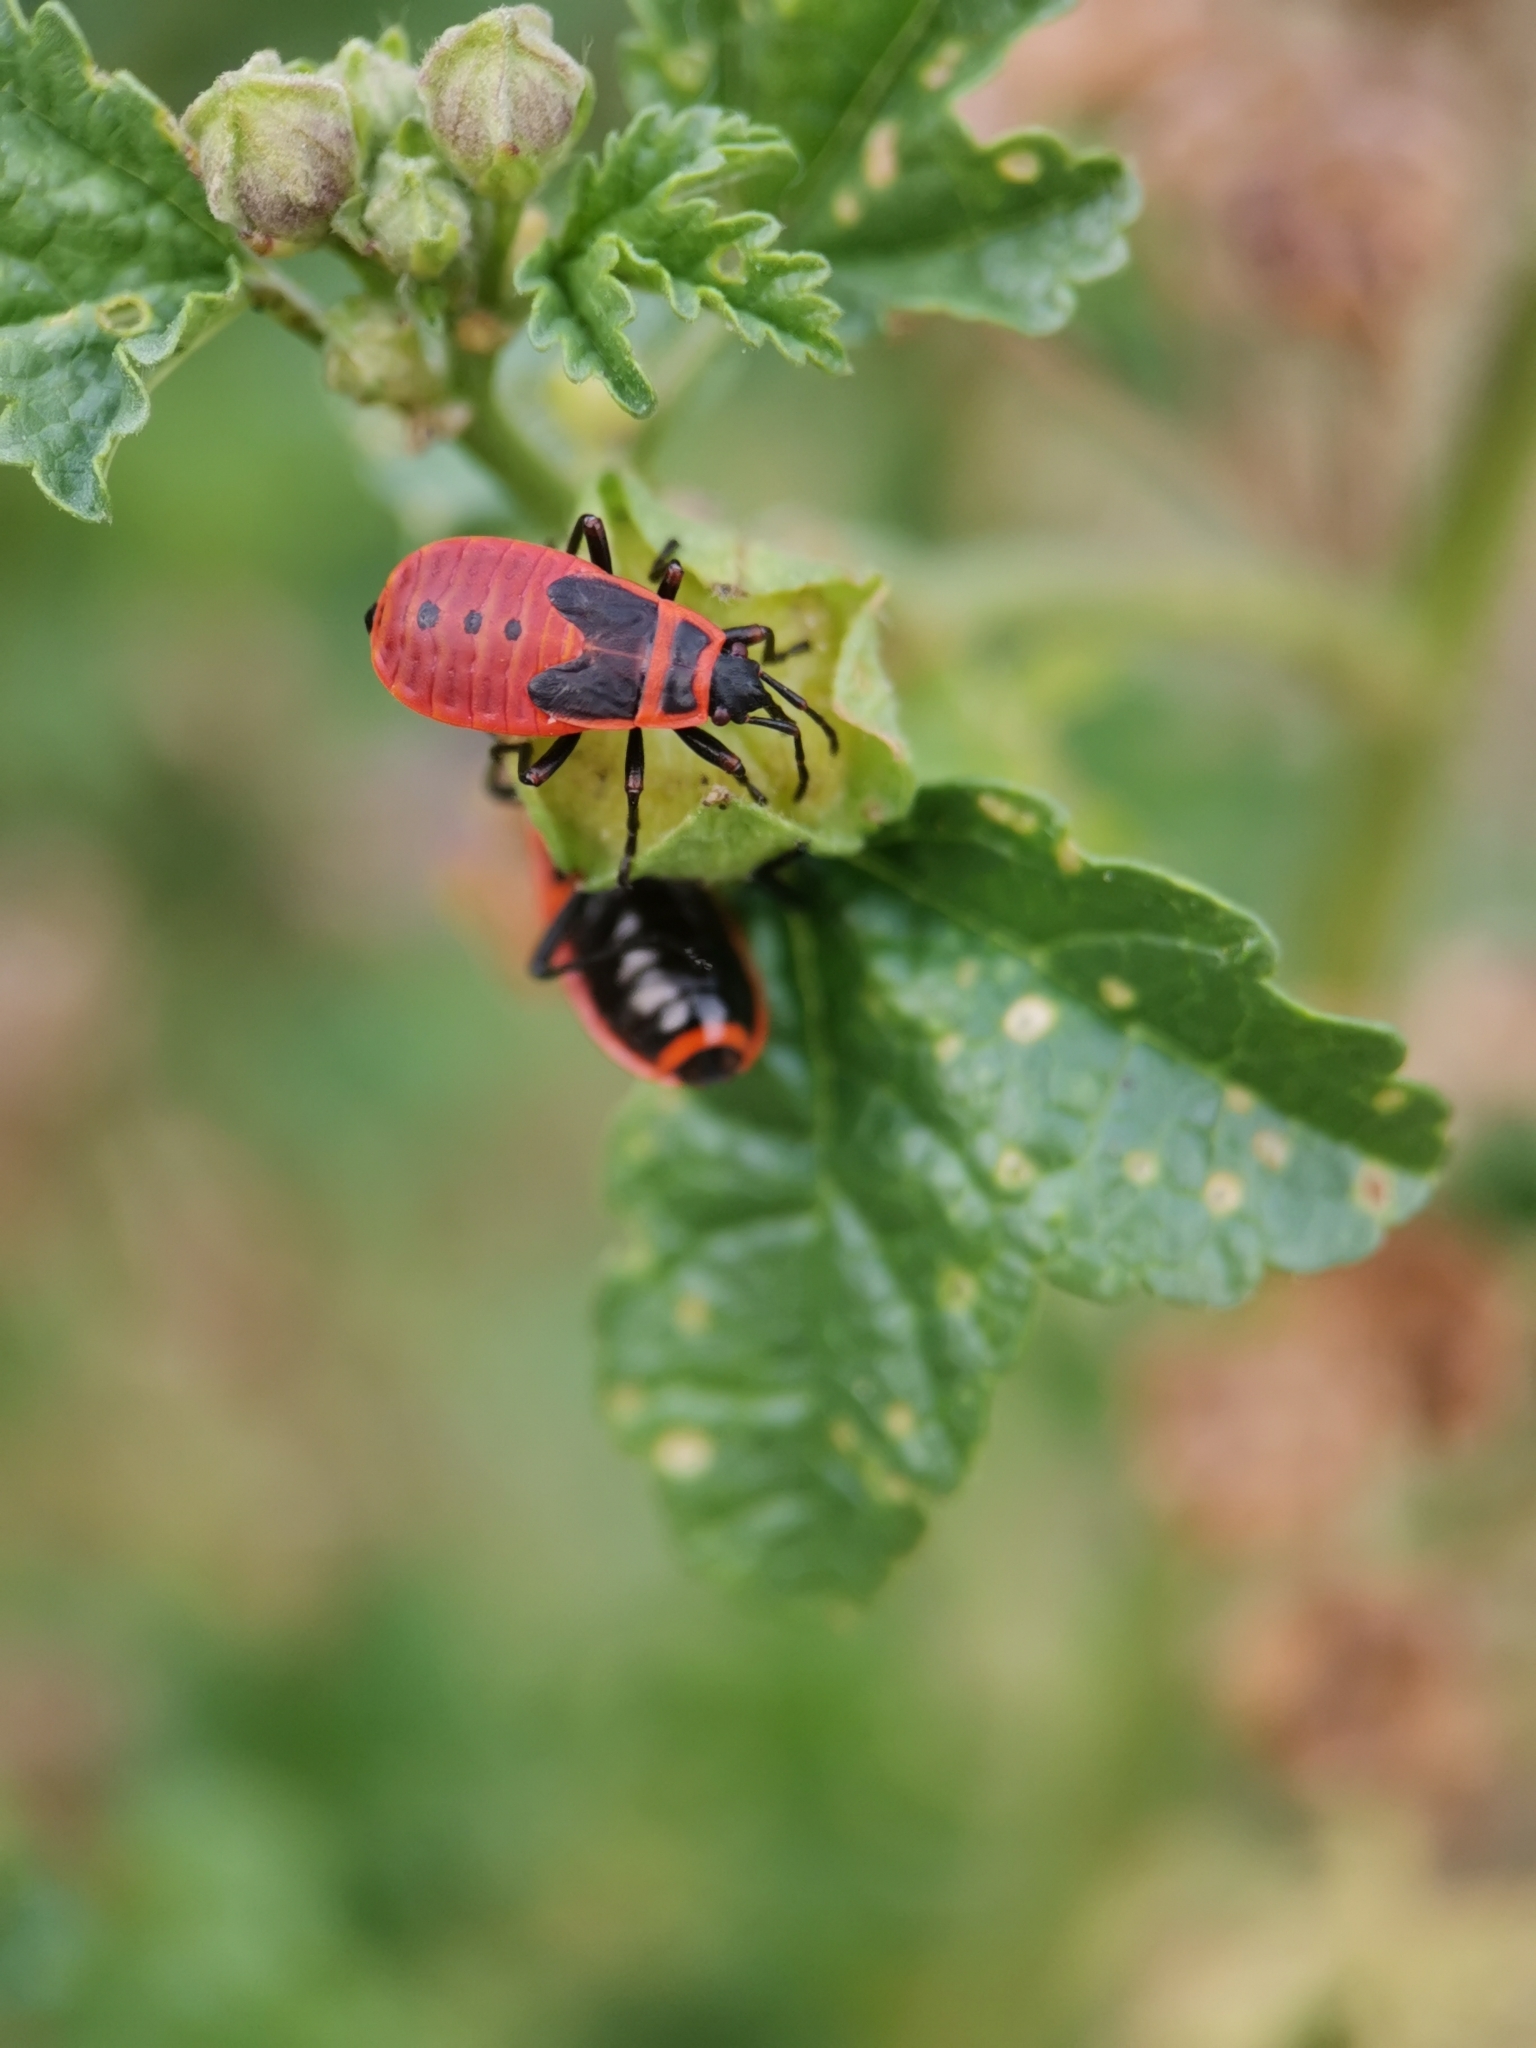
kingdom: Animalia
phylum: Arthropoda
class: Insecta
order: Hemiptera
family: Pyrrhocoridae
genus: Pyrrhocoris
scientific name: Pyrrhocoris apterus
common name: Firebug
